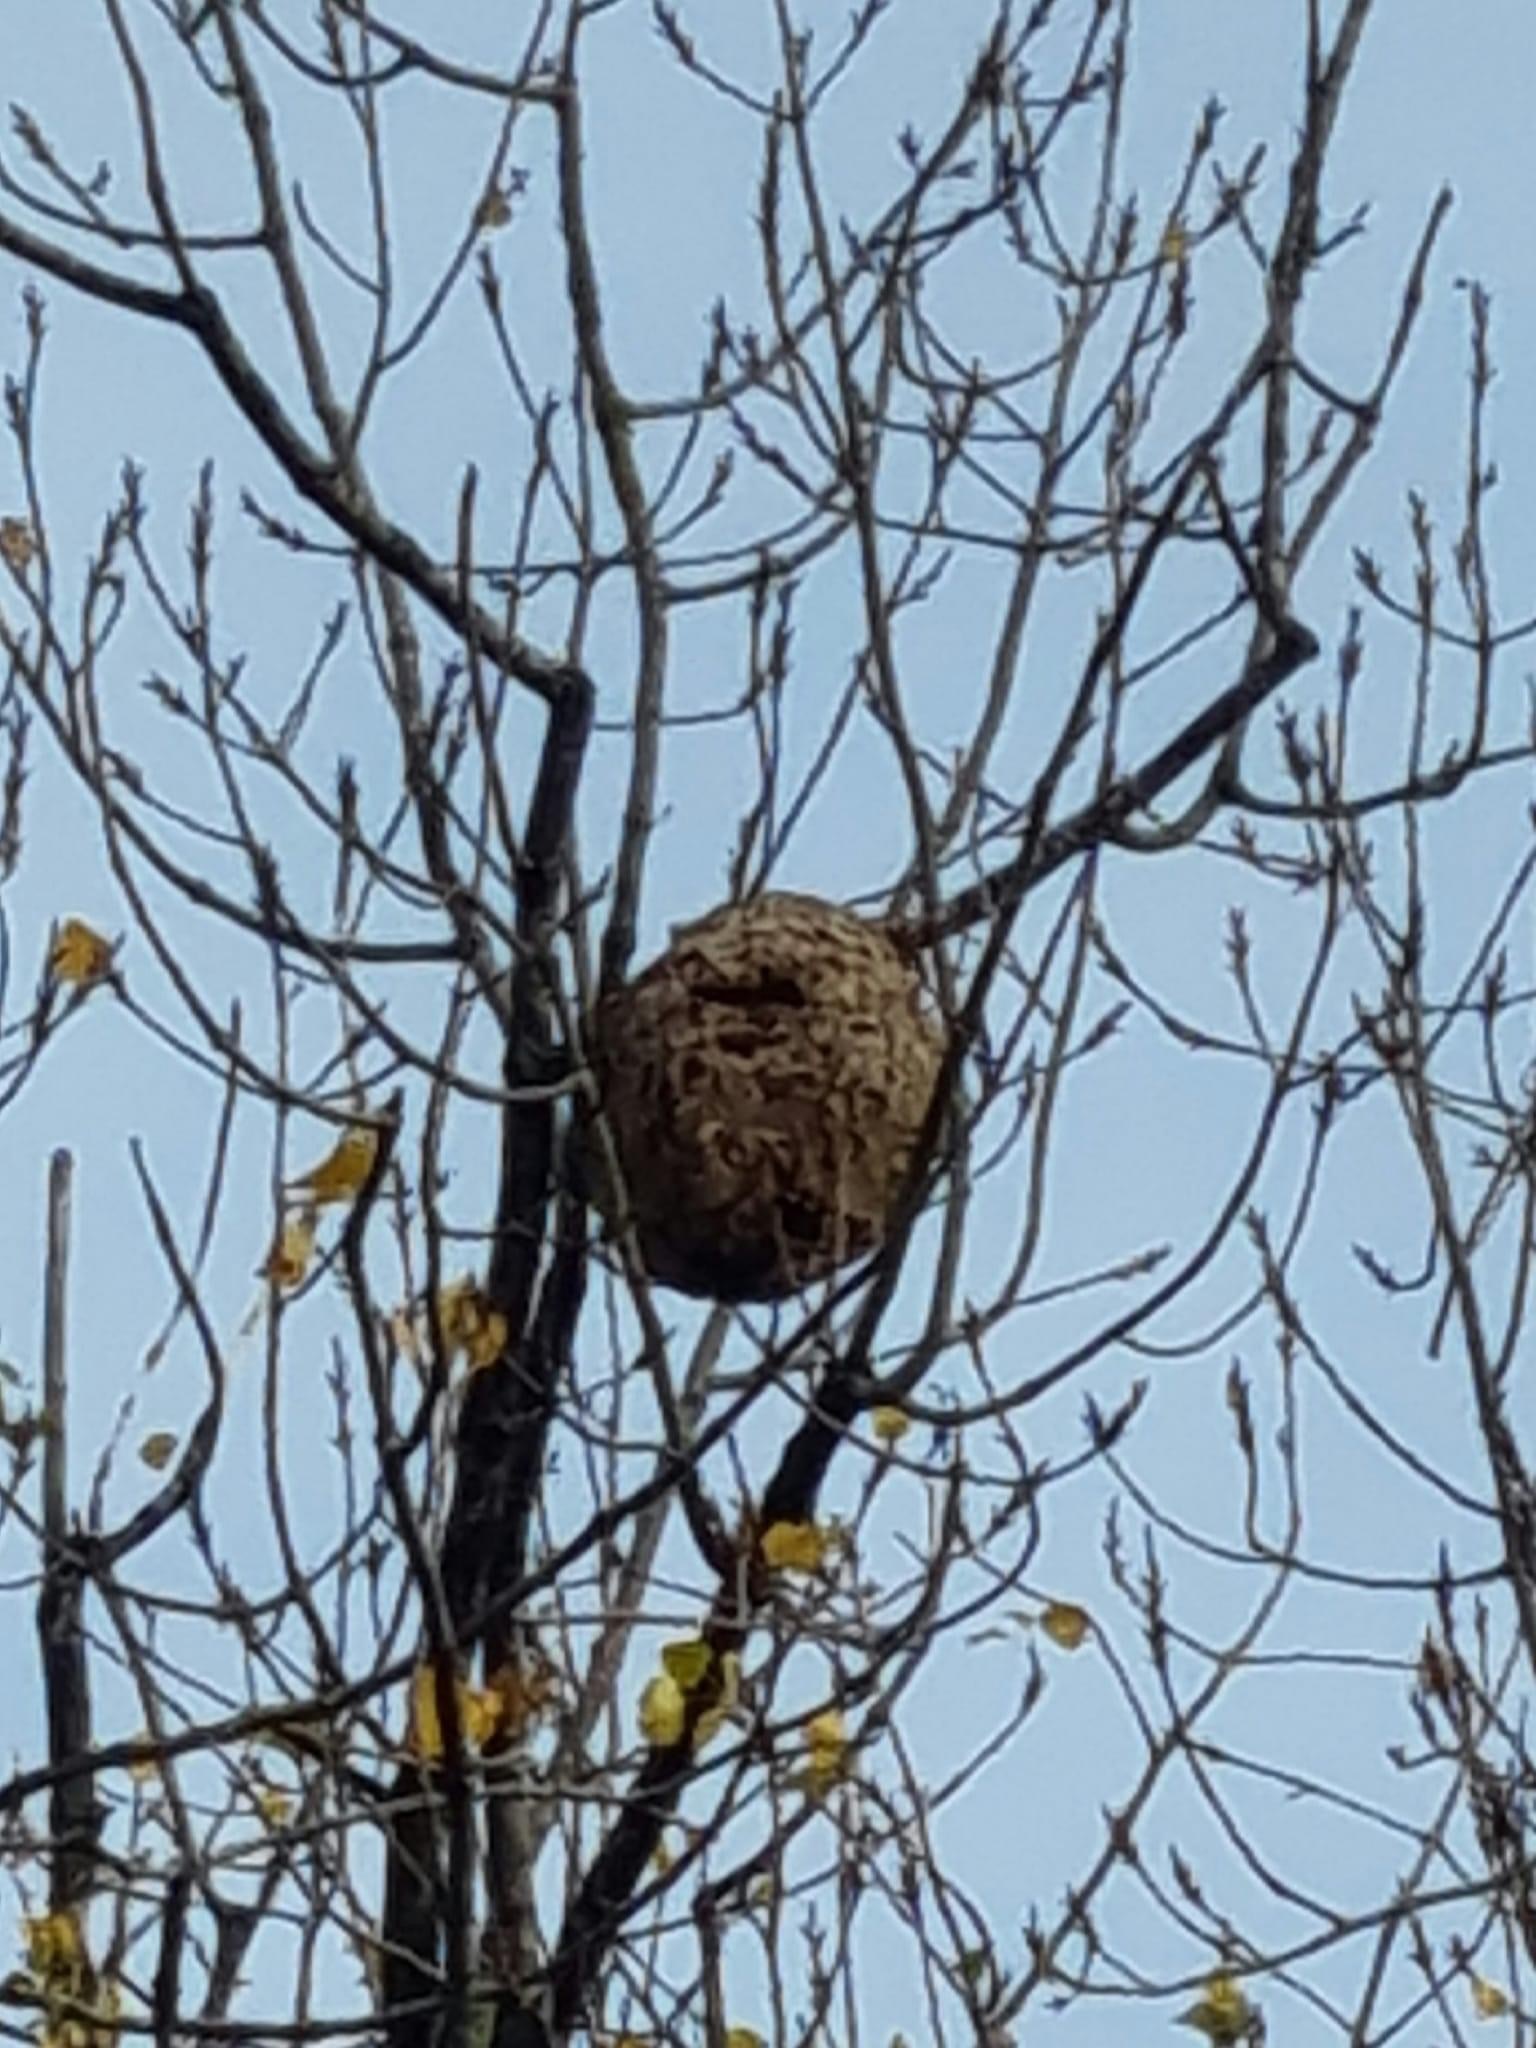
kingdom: Animalia
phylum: Arthropoda
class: Insecta
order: Hymenoptera
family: Vespidae
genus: Vespa
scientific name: Vespa velutina
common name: Asian hornet
